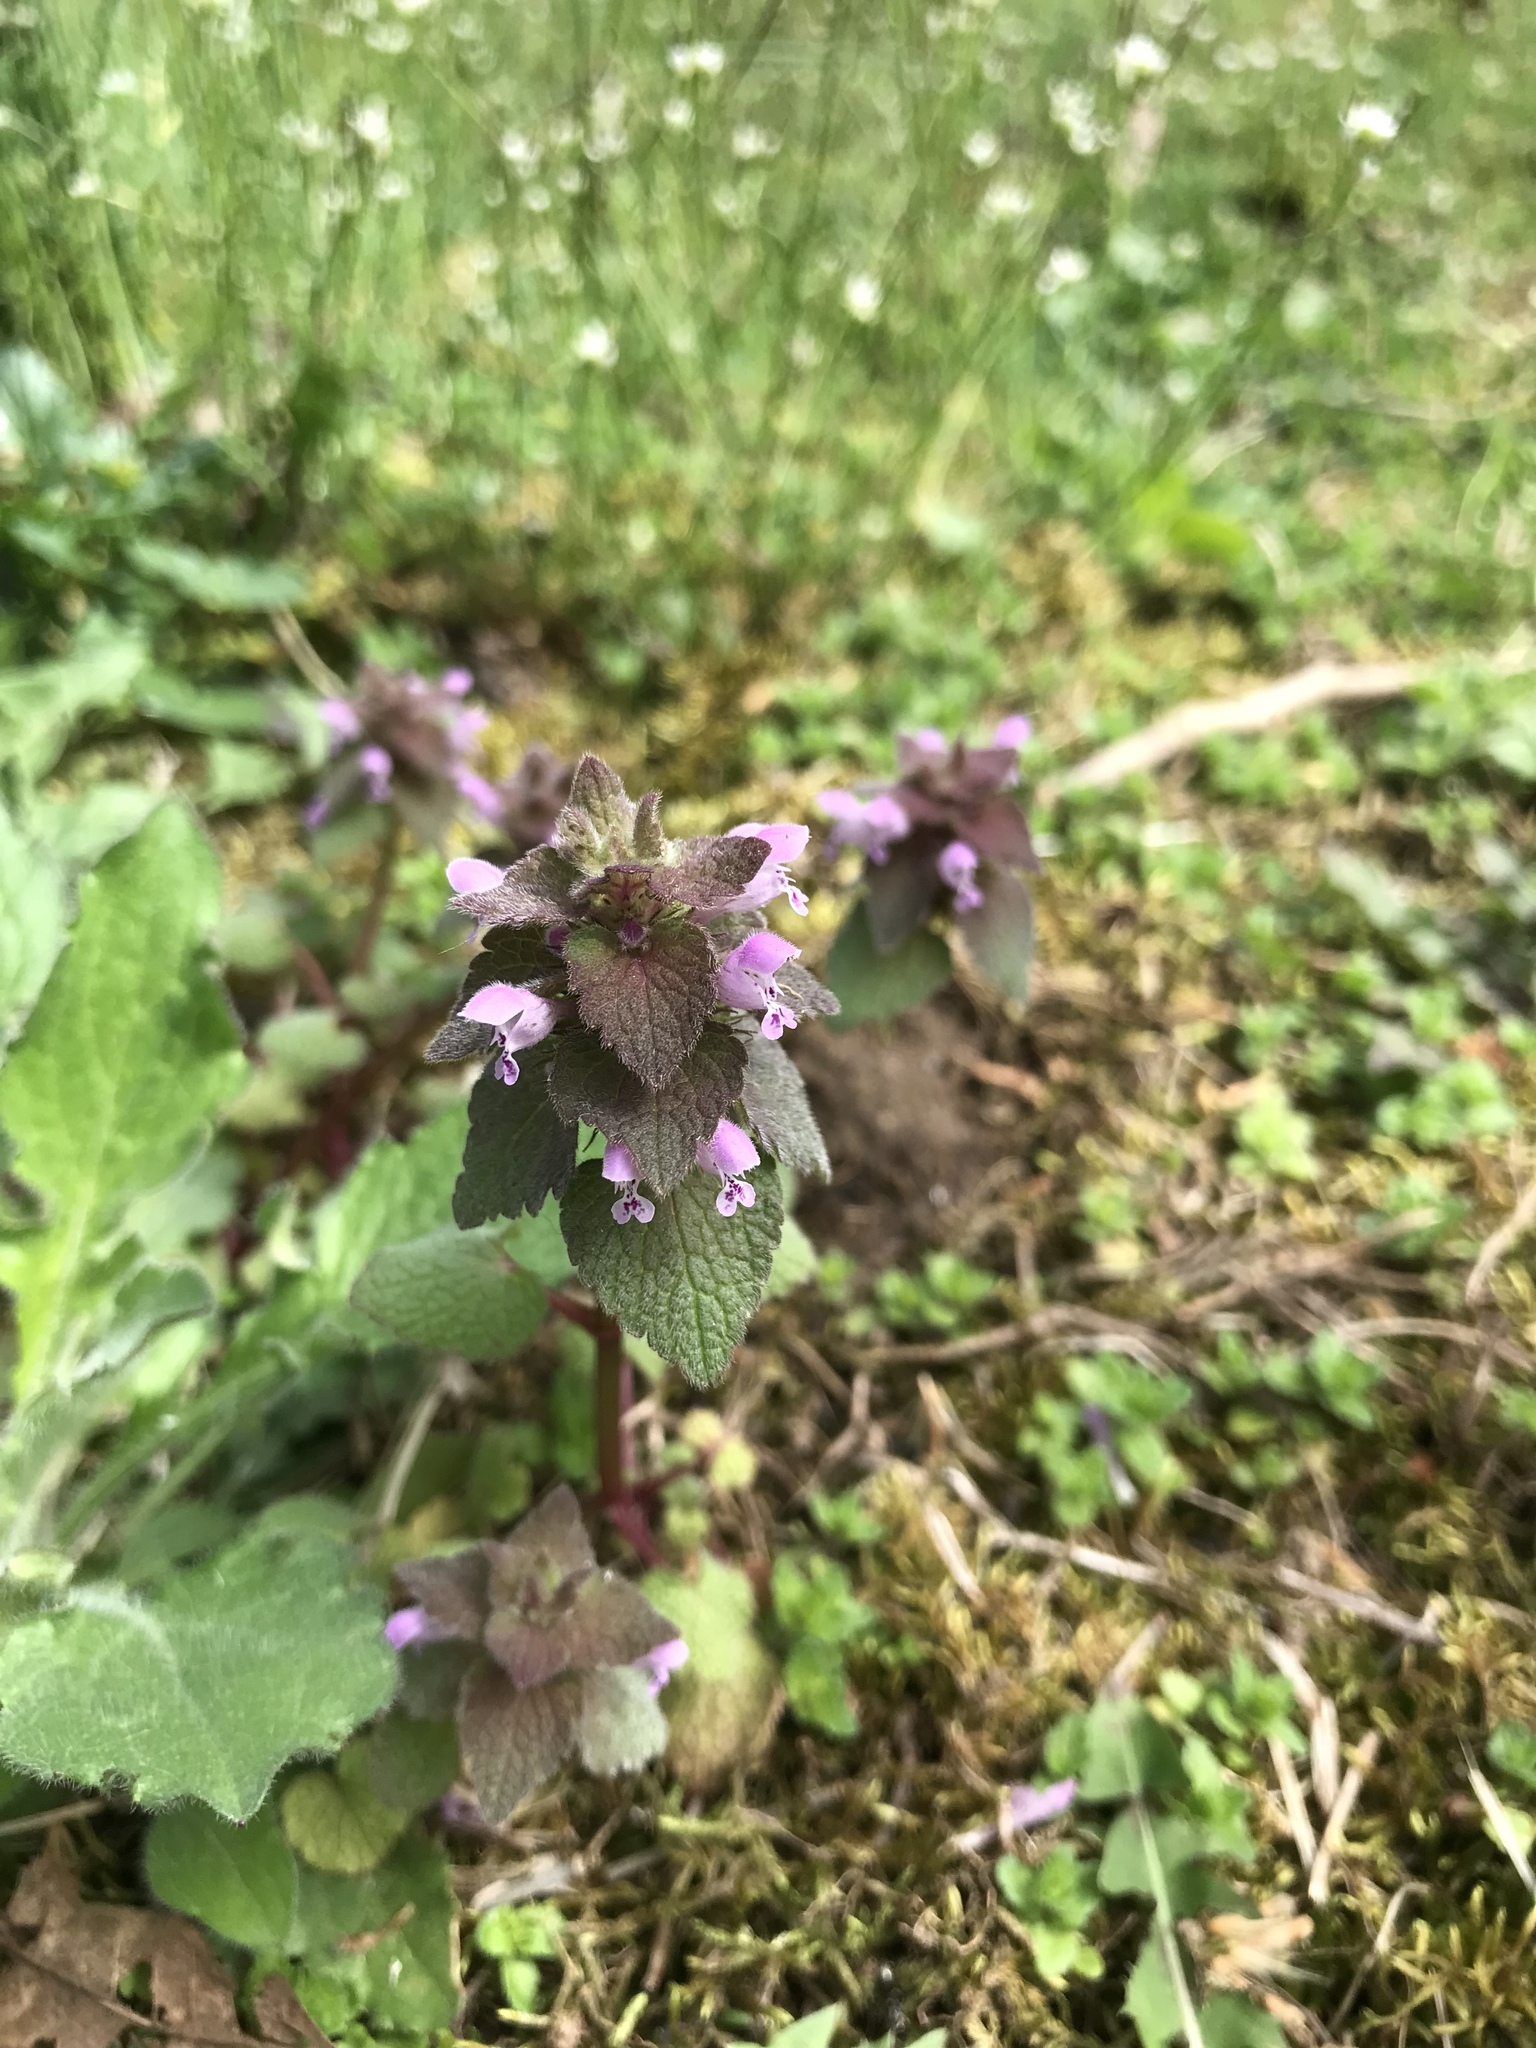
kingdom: Plantae
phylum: Tracheophyta
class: Magnoliopsida
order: Lamiales
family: Lamiaceae
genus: Lamium
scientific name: Lamium purpureum
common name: Red dead-nettle
